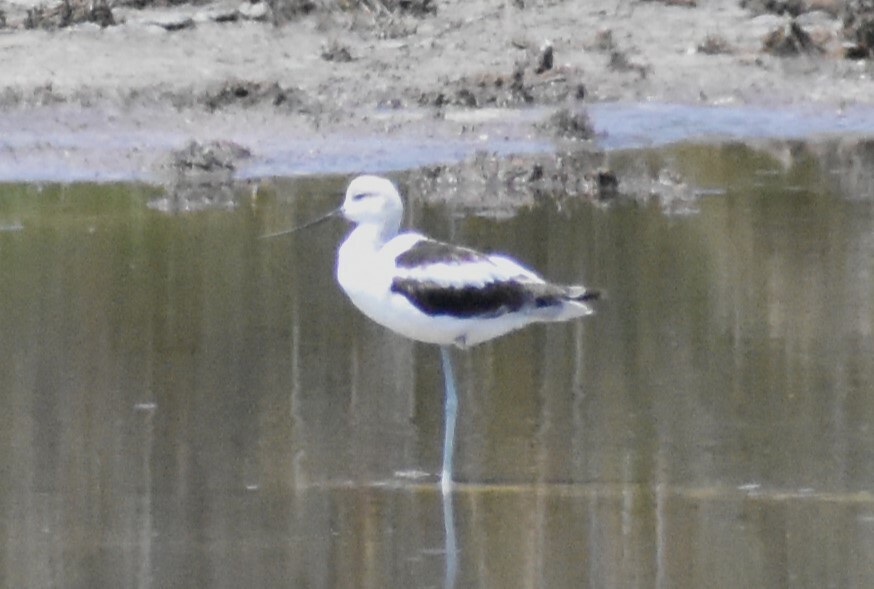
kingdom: Animalia
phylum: Chordata
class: Aves
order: Charadriiformes
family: Recurvirostridae
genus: Recurvirostra
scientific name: Recurvirostra americana
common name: American avocet
